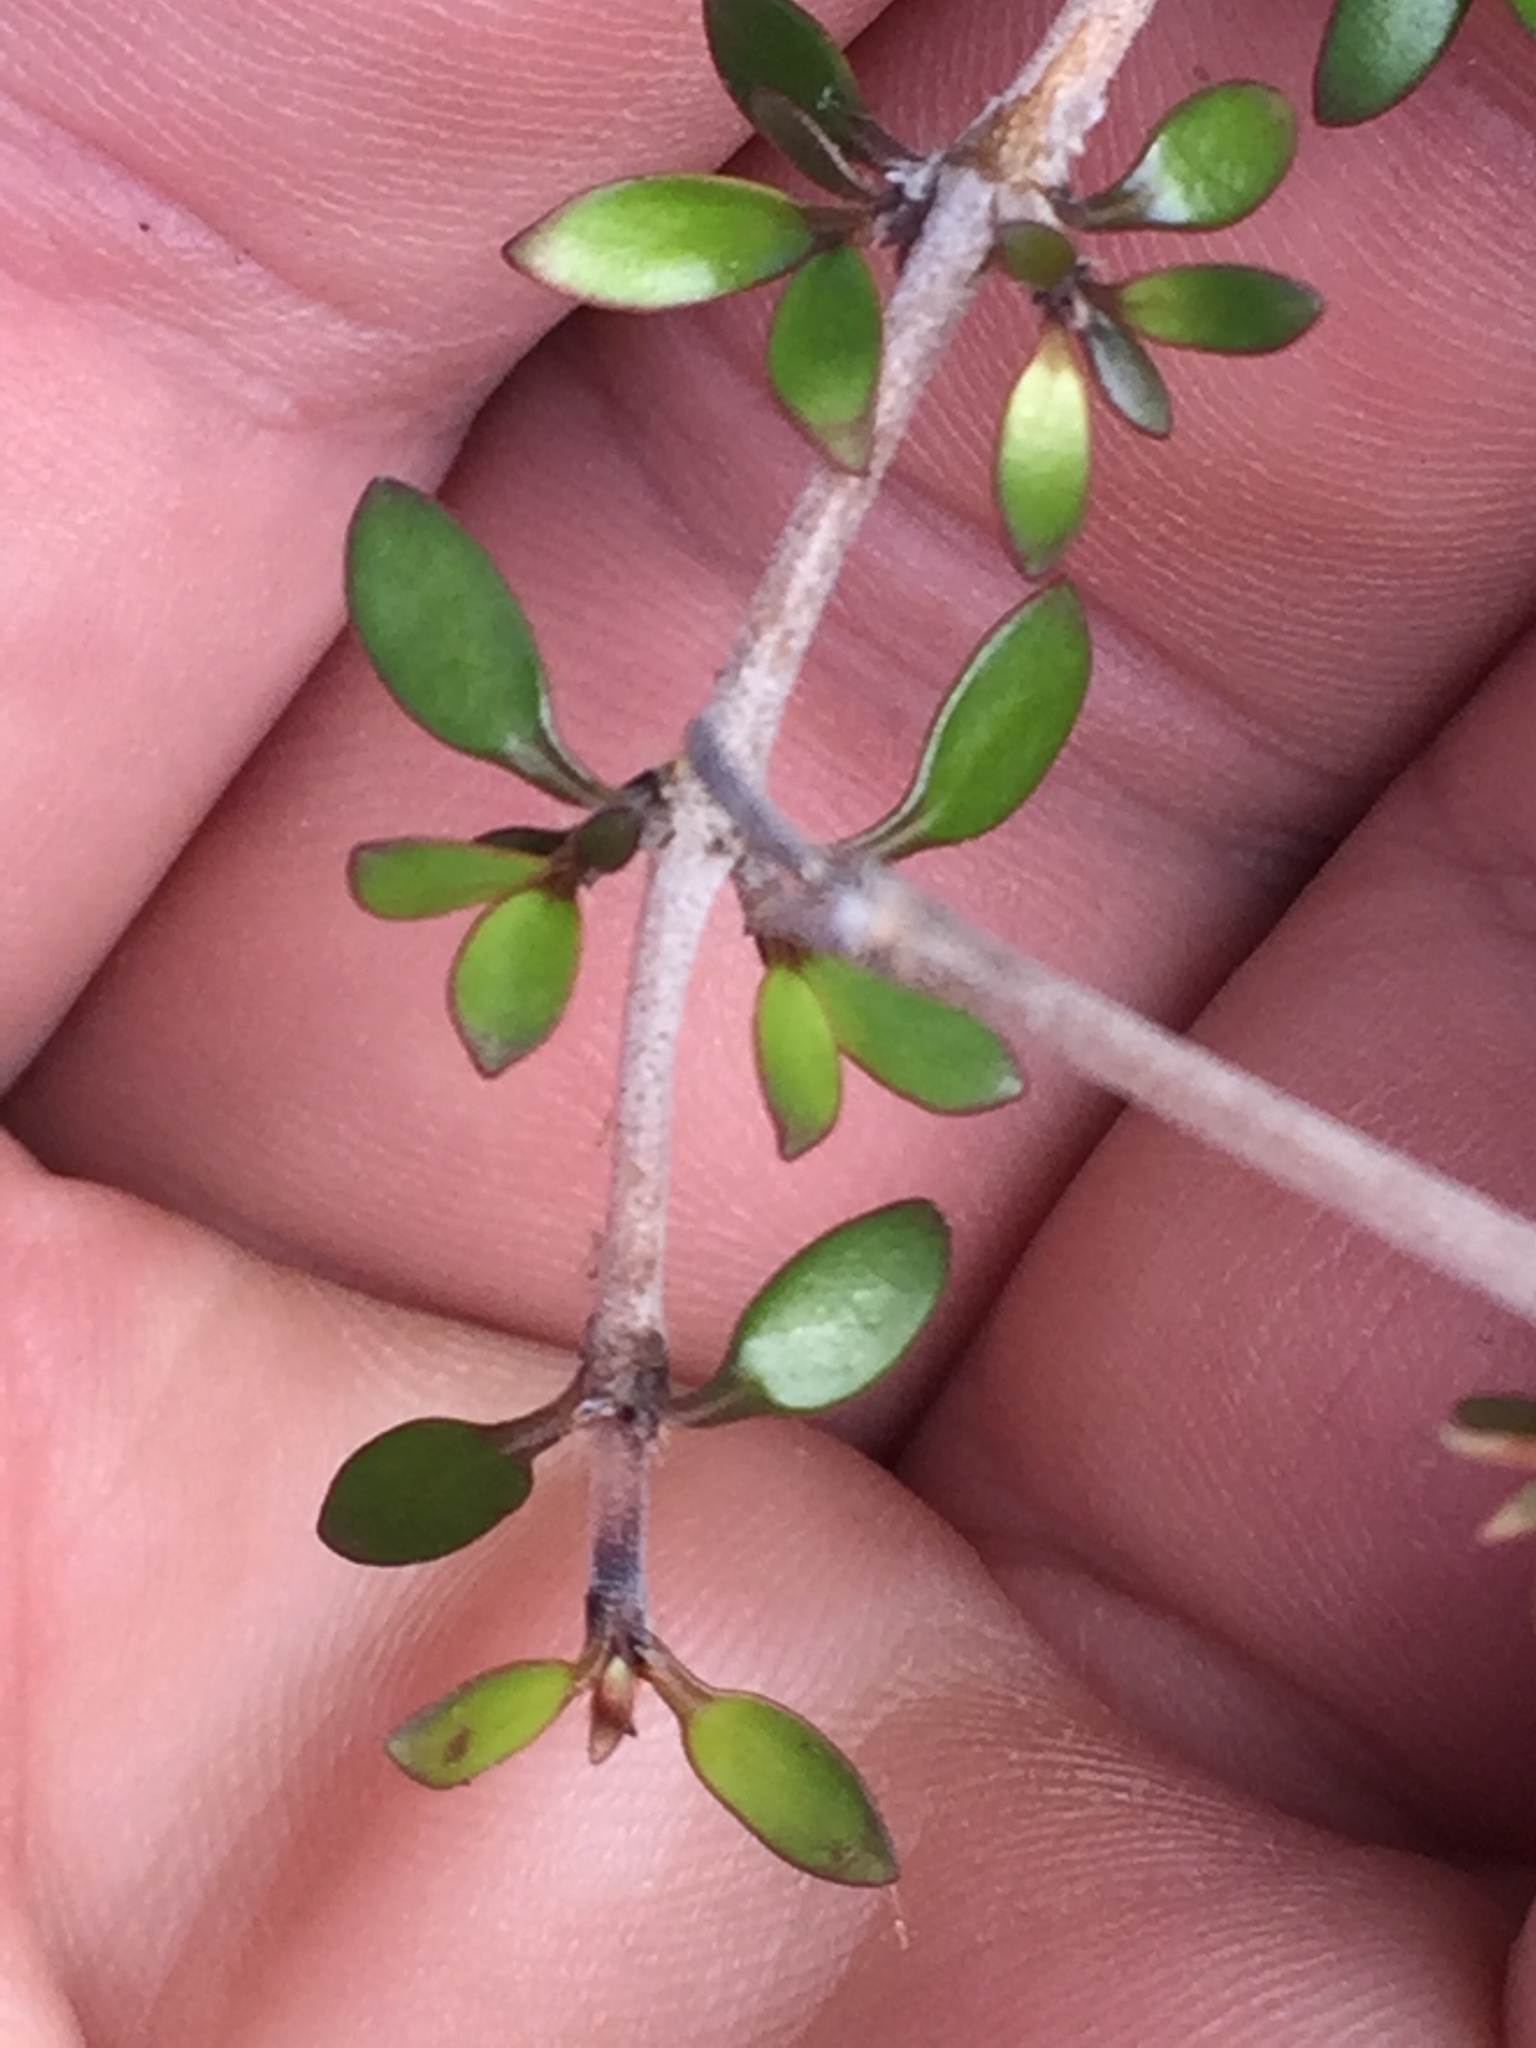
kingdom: Plantae
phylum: Tracheophyta
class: Magnoliopsida
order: Gentianales
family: Rubiaceae
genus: Coprosma
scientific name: Coprosma propinqua
